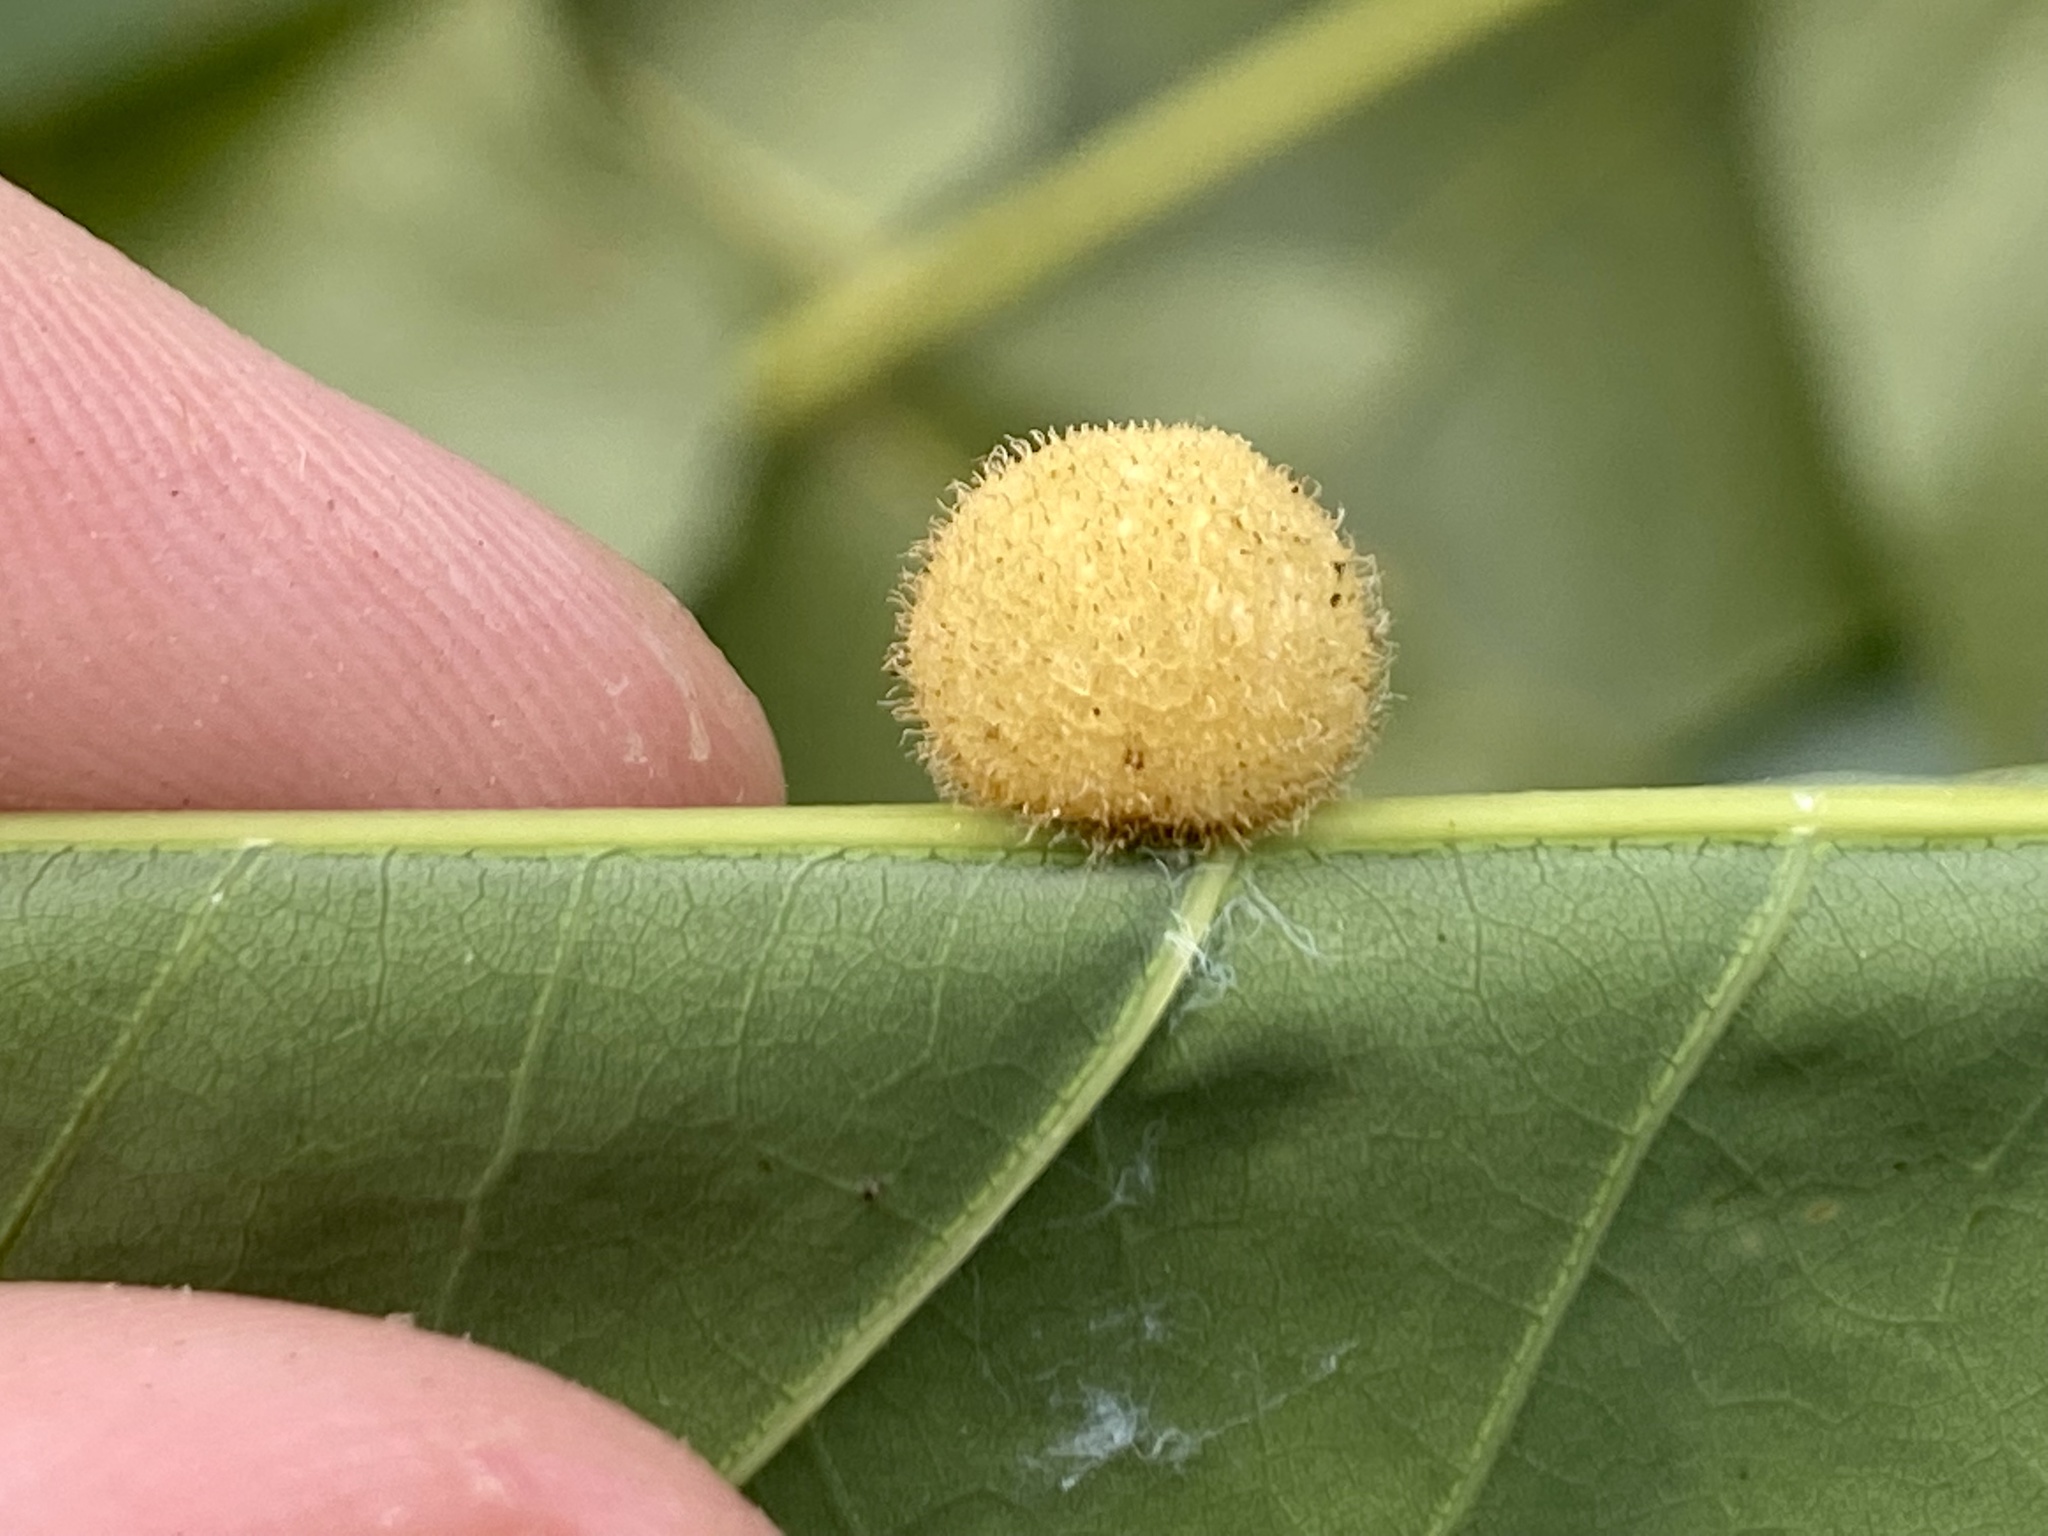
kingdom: Animalia
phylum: Arthropoda
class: Insecta
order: Hymenoptera
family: Cynipidae
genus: Philonix
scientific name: Philonix fulvicollis
